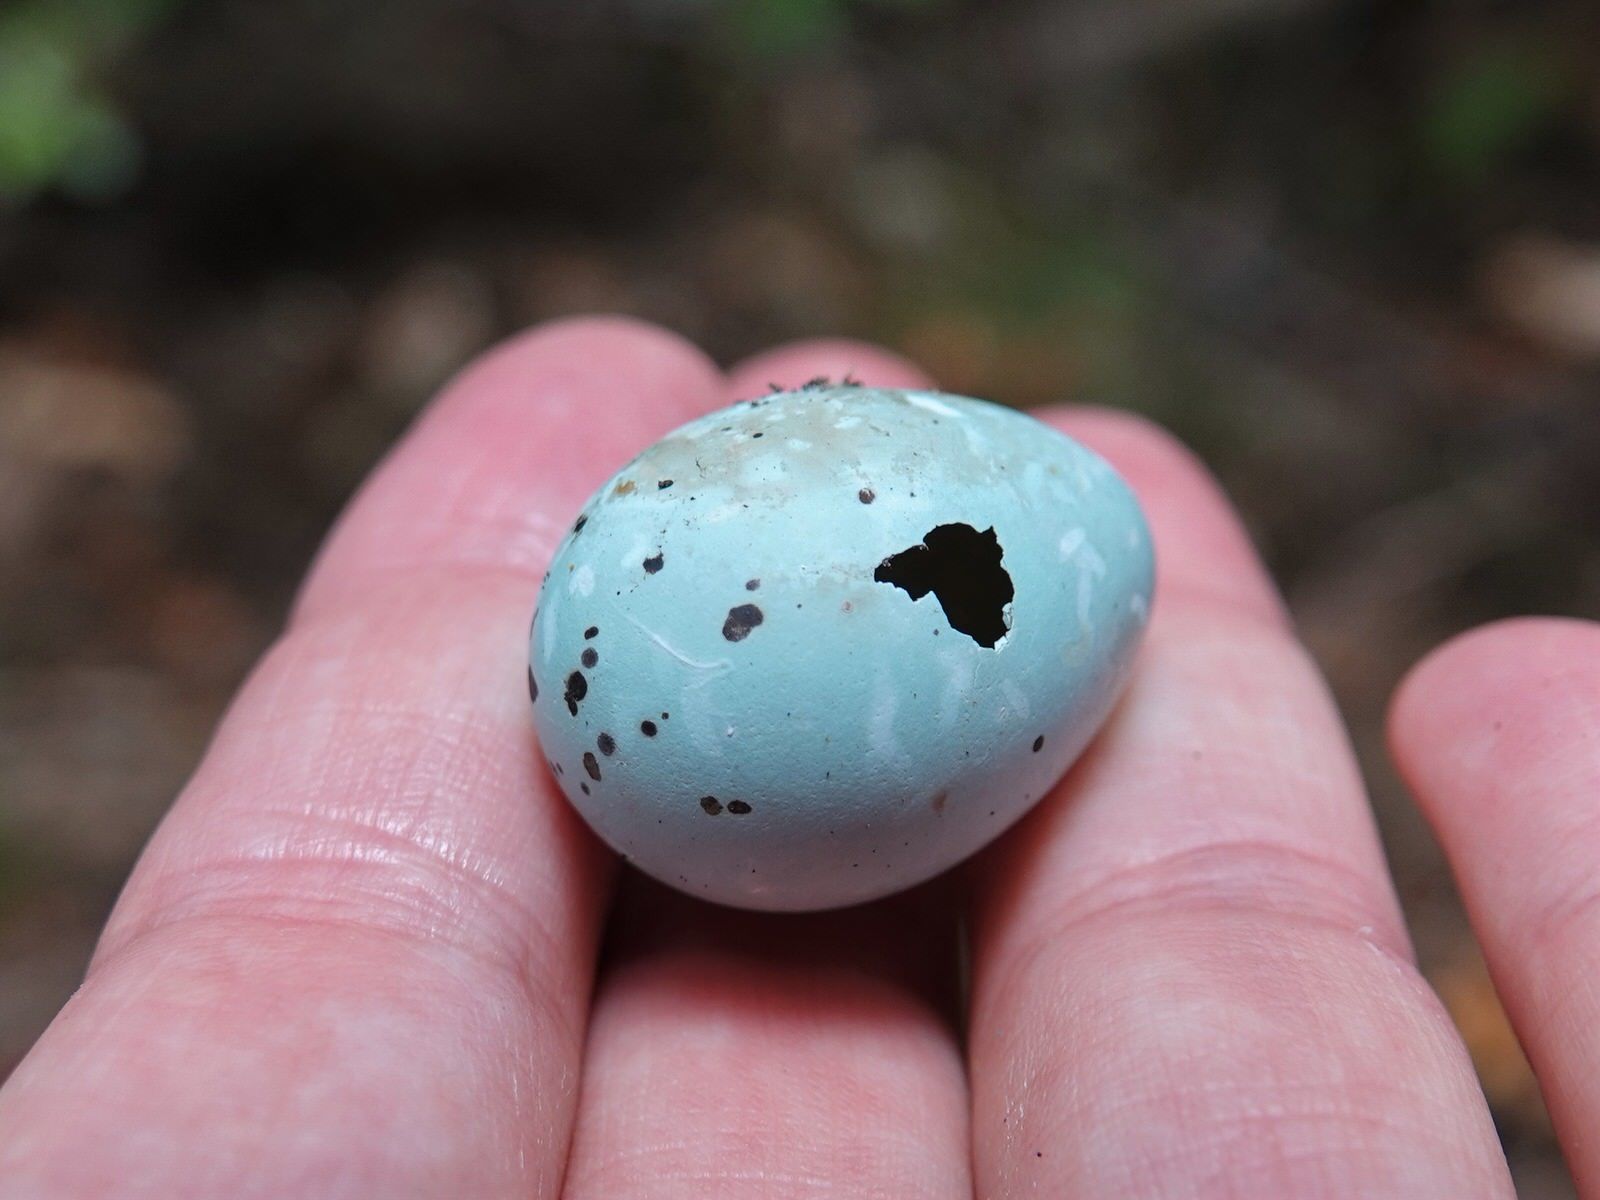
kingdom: Animalia
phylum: Chordata
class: Aves
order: Passeriformes
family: Turdidae
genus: Turdus
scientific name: Turdus philomelos
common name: Song thrush
